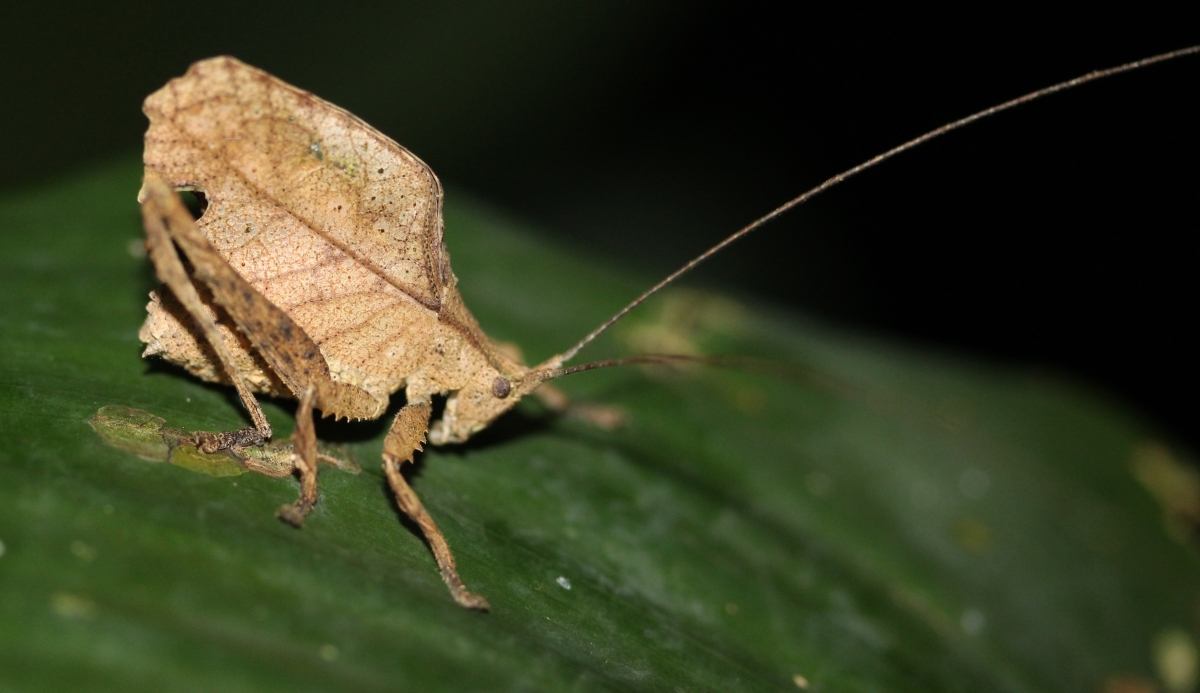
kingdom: Animalia
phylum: Arthropoda
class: Insecta
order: Orthoptera
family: Tettigoniidae
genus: Typophyllum
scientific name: Typophyllum curtum
